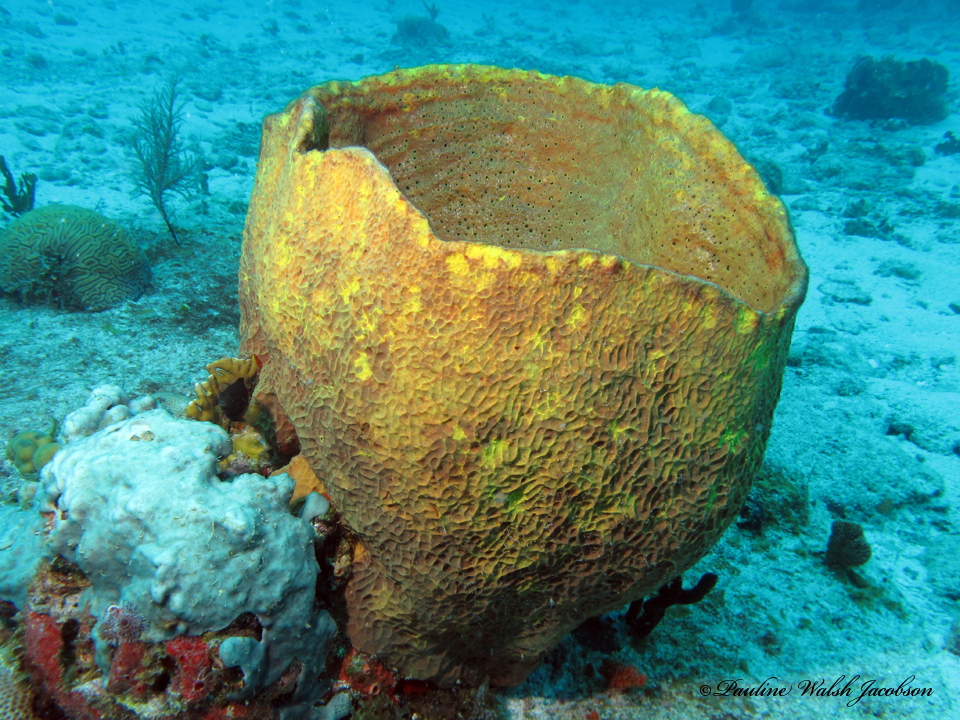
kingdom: Animalia
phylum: Porifera
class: Demospongiae
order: Verongiida
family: Aplysinidae
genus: Verongula
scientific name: Verongula gigantea
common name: Netted barrel sponge
